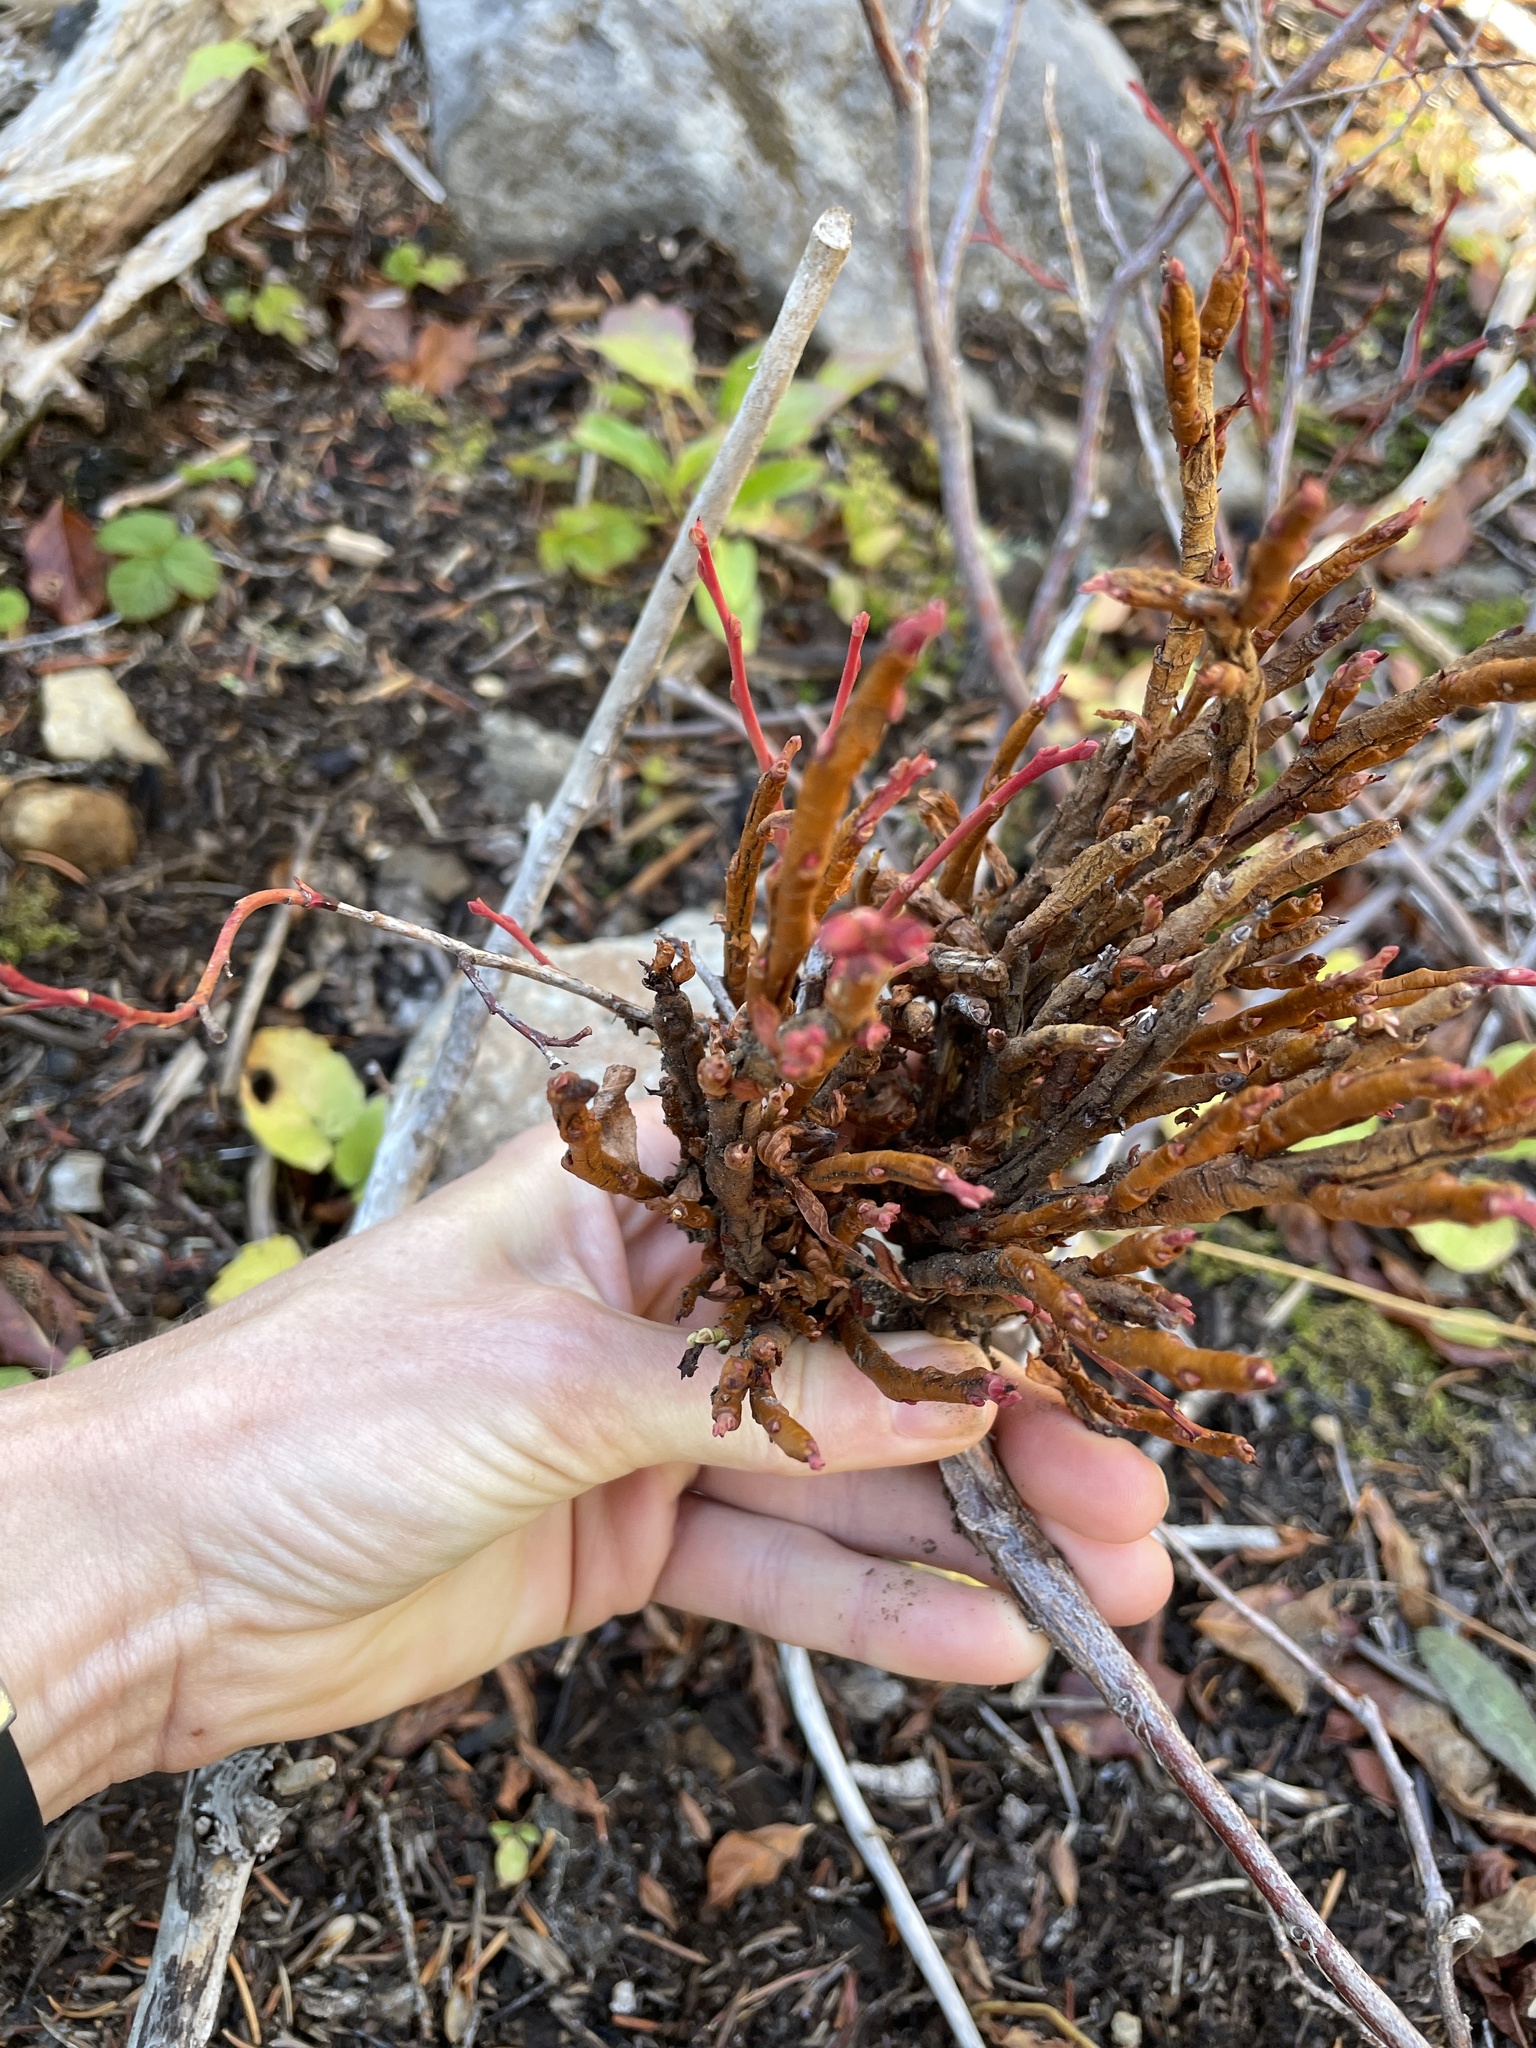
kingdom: Fungi
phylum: Basidiomycota
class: Pucciniomycetes
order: Pucciniales
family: Pucciniastraceae
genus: Calyptospora
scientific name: Calyptospora
